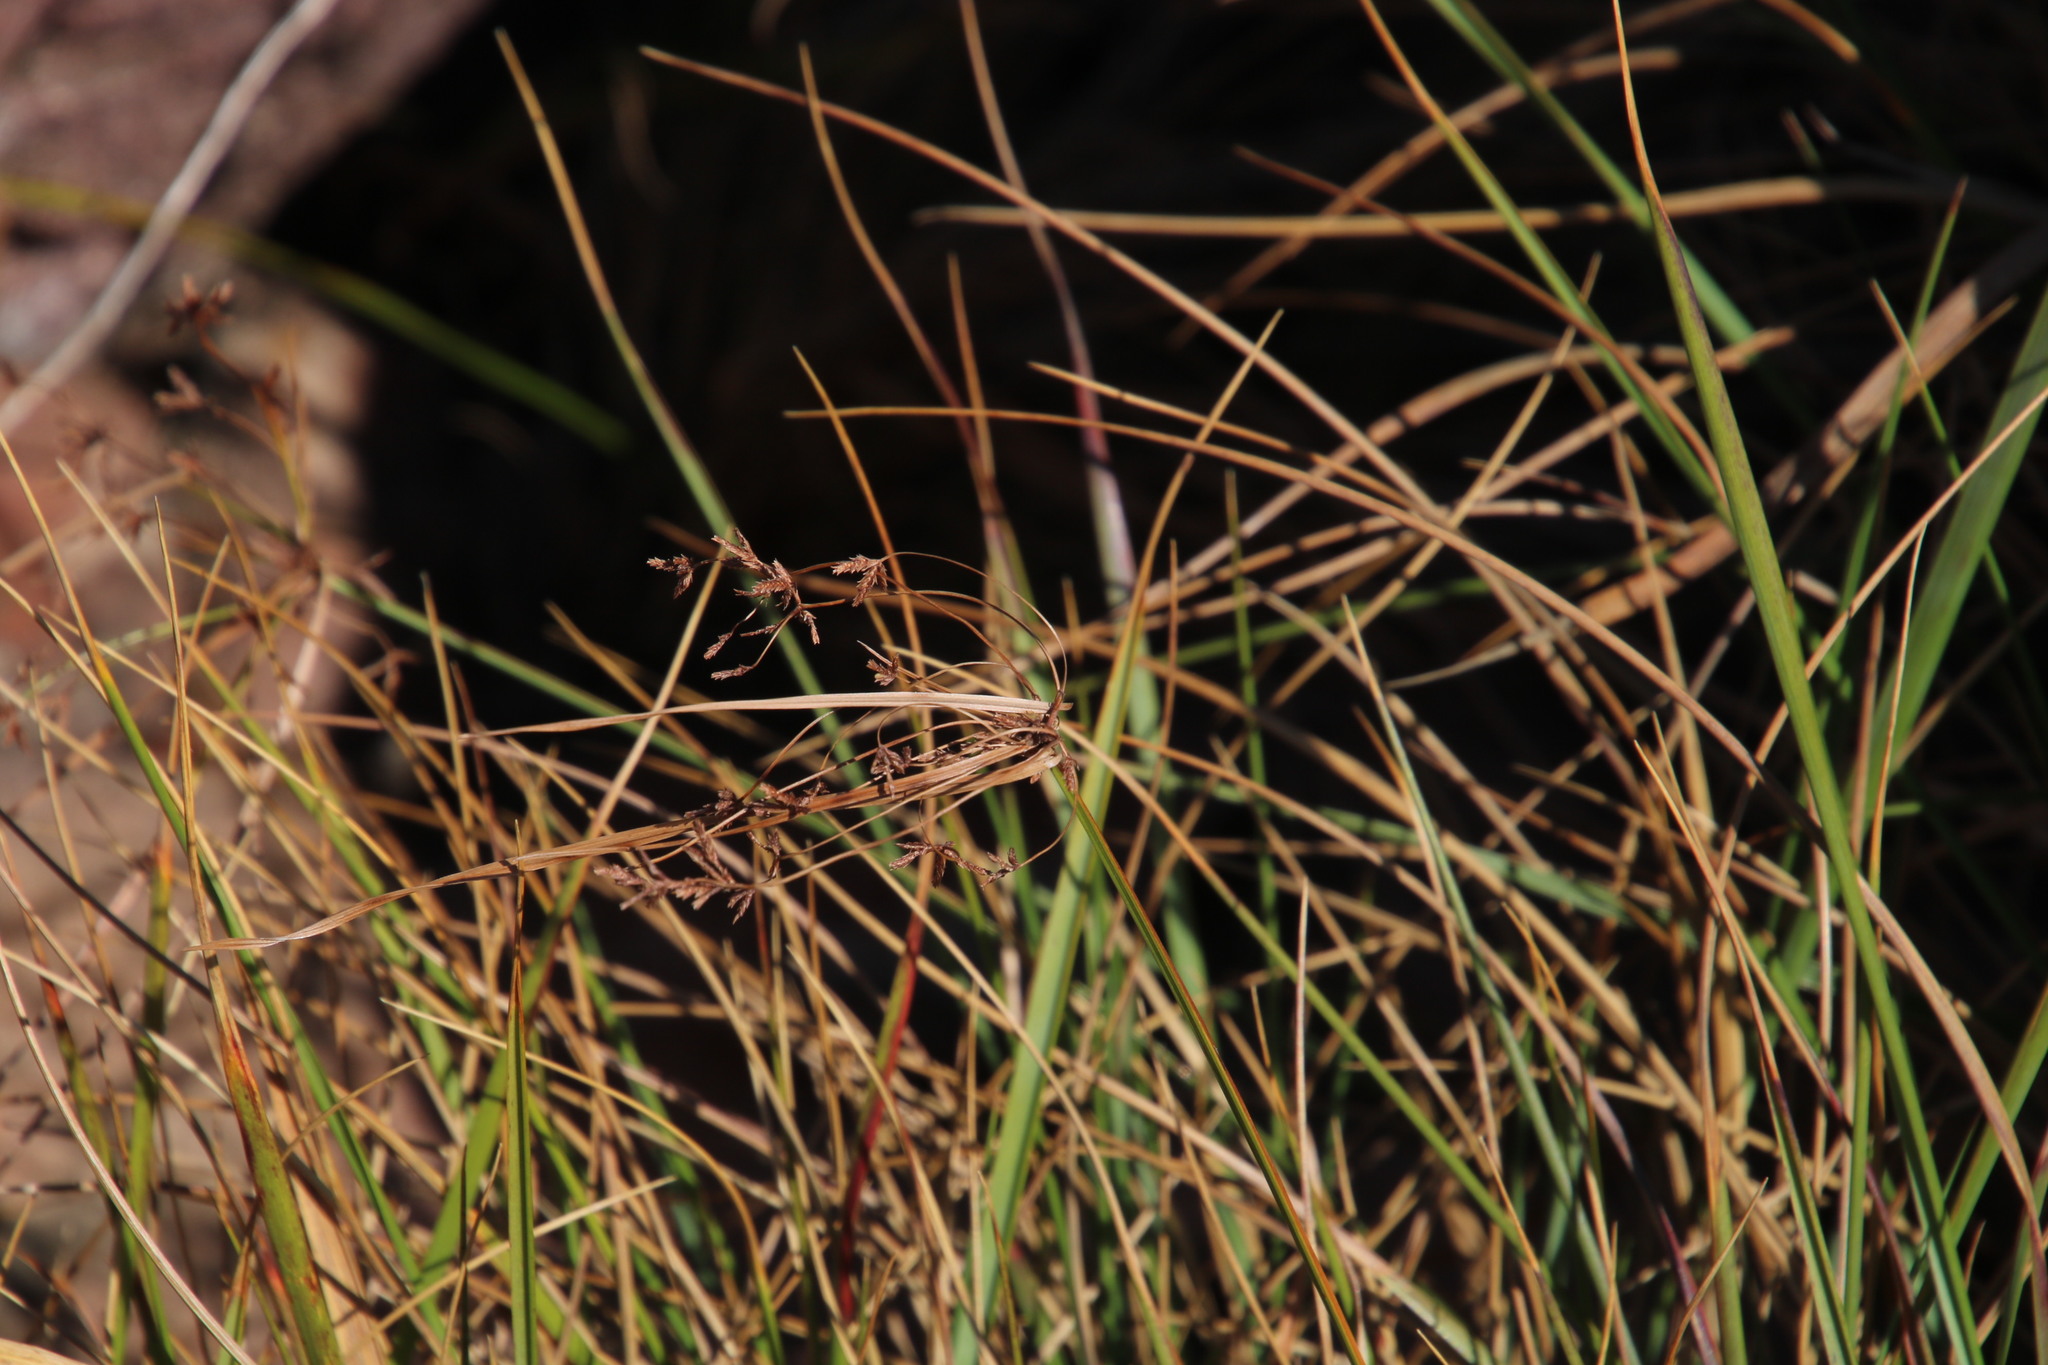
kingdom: Plantae
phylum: Tracheophyta
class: Liliopsida
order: Poales
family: Cyperaceae
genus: Cyperus
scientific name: Cyperus leptocladus
